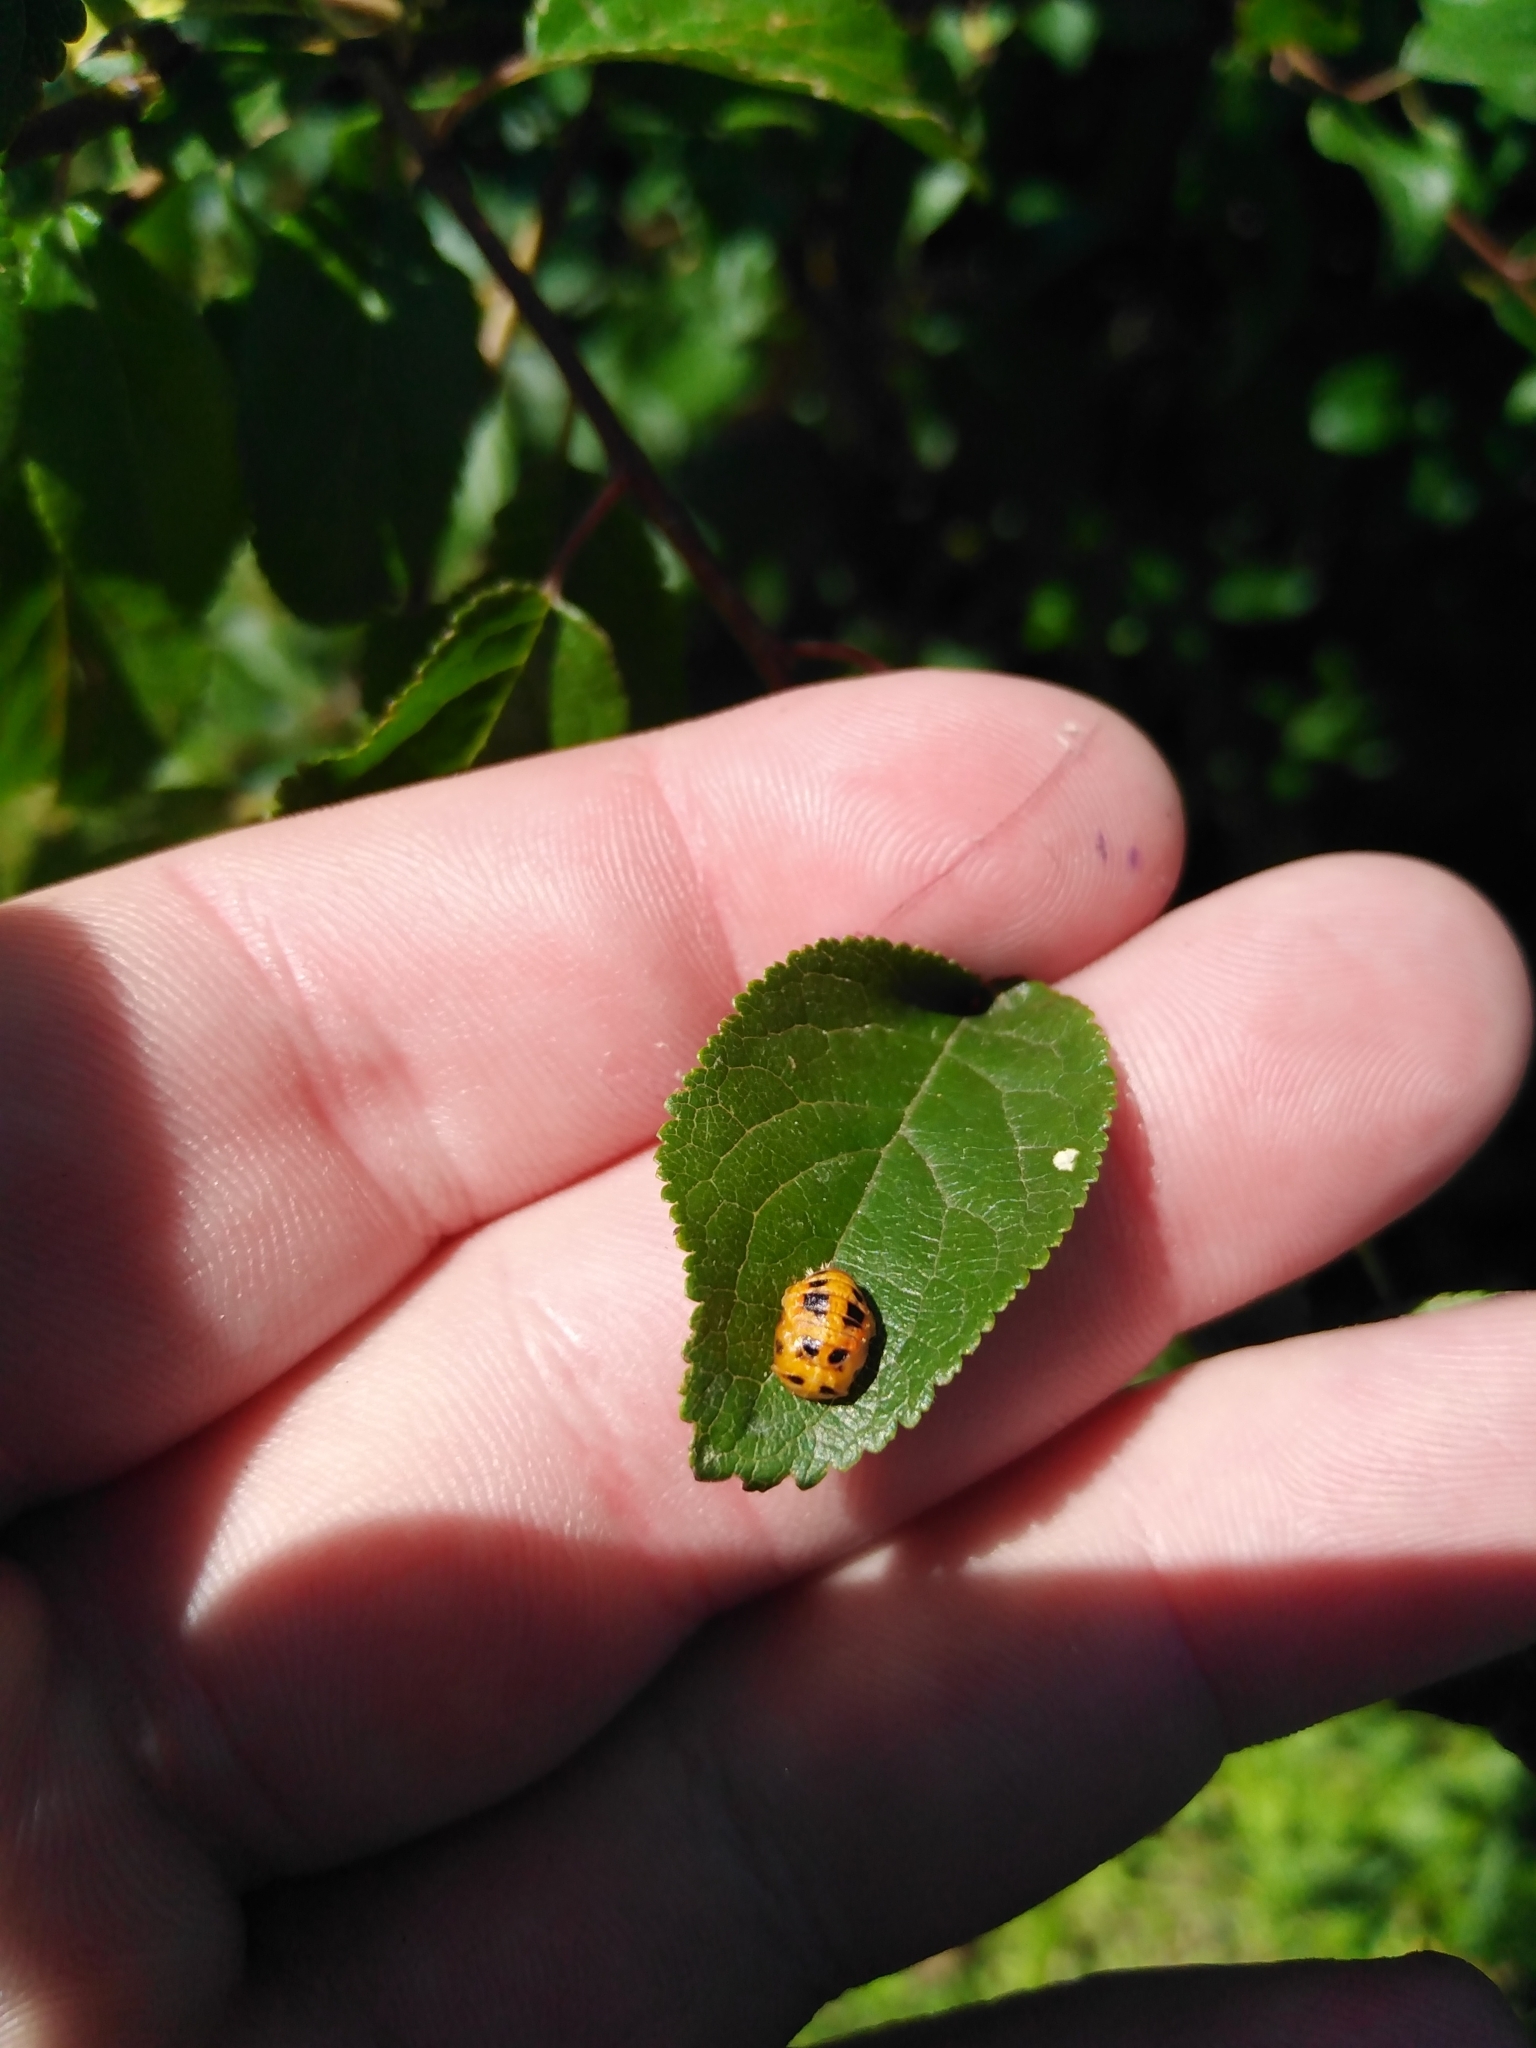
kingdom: Animalia
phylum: Arthropoda
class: Insecta
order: Coleoptera
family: Coccinellidae
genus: Harmonia
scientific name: Harmonia axyridis
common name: Harlequin ladybird
